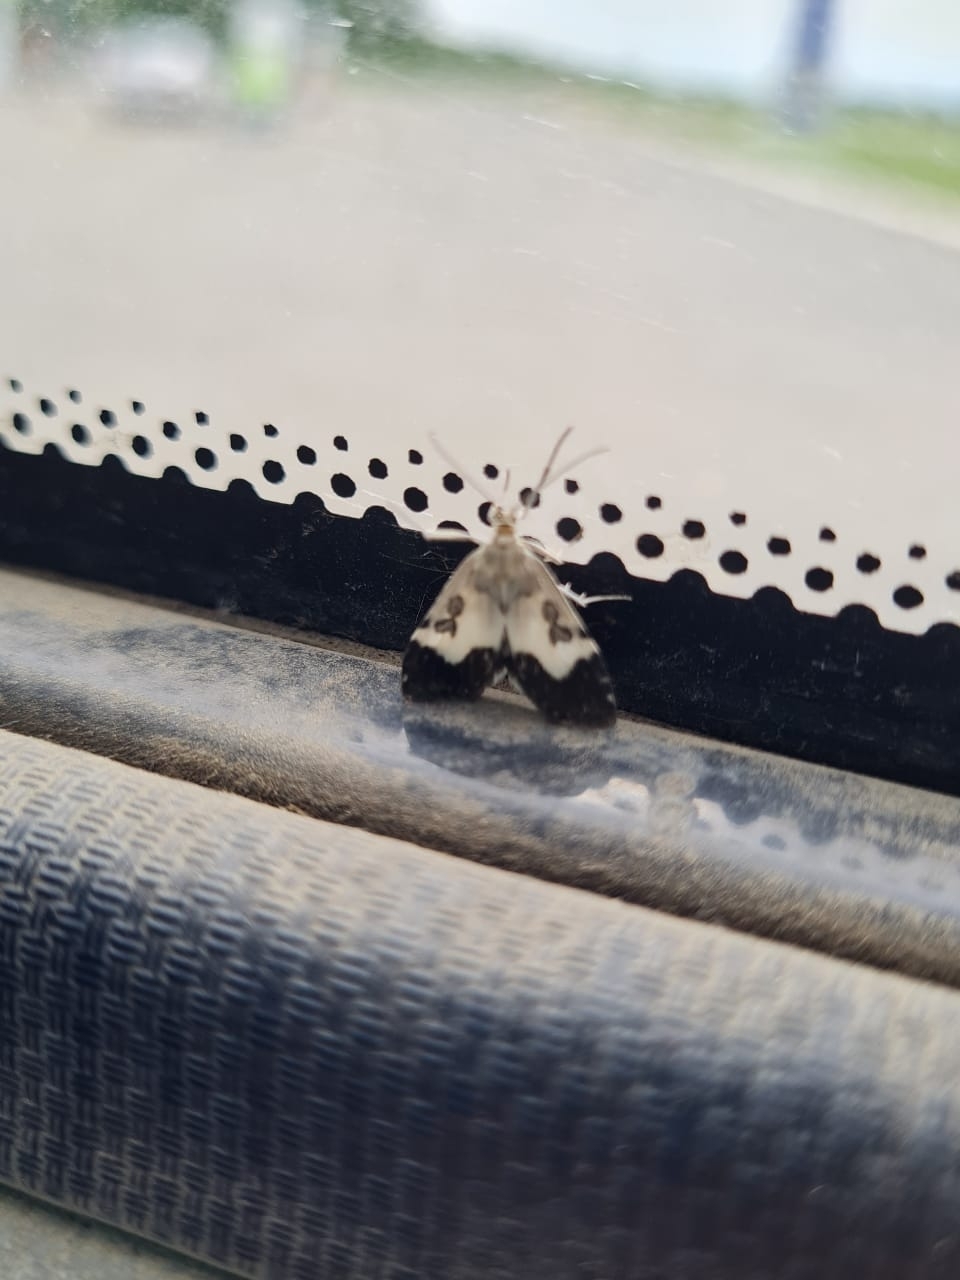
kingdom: Animalia
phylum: Arthropoda
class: Insecta
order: Lepidoptera
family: Crambidae
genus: Udea
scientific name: Udea hamalis
